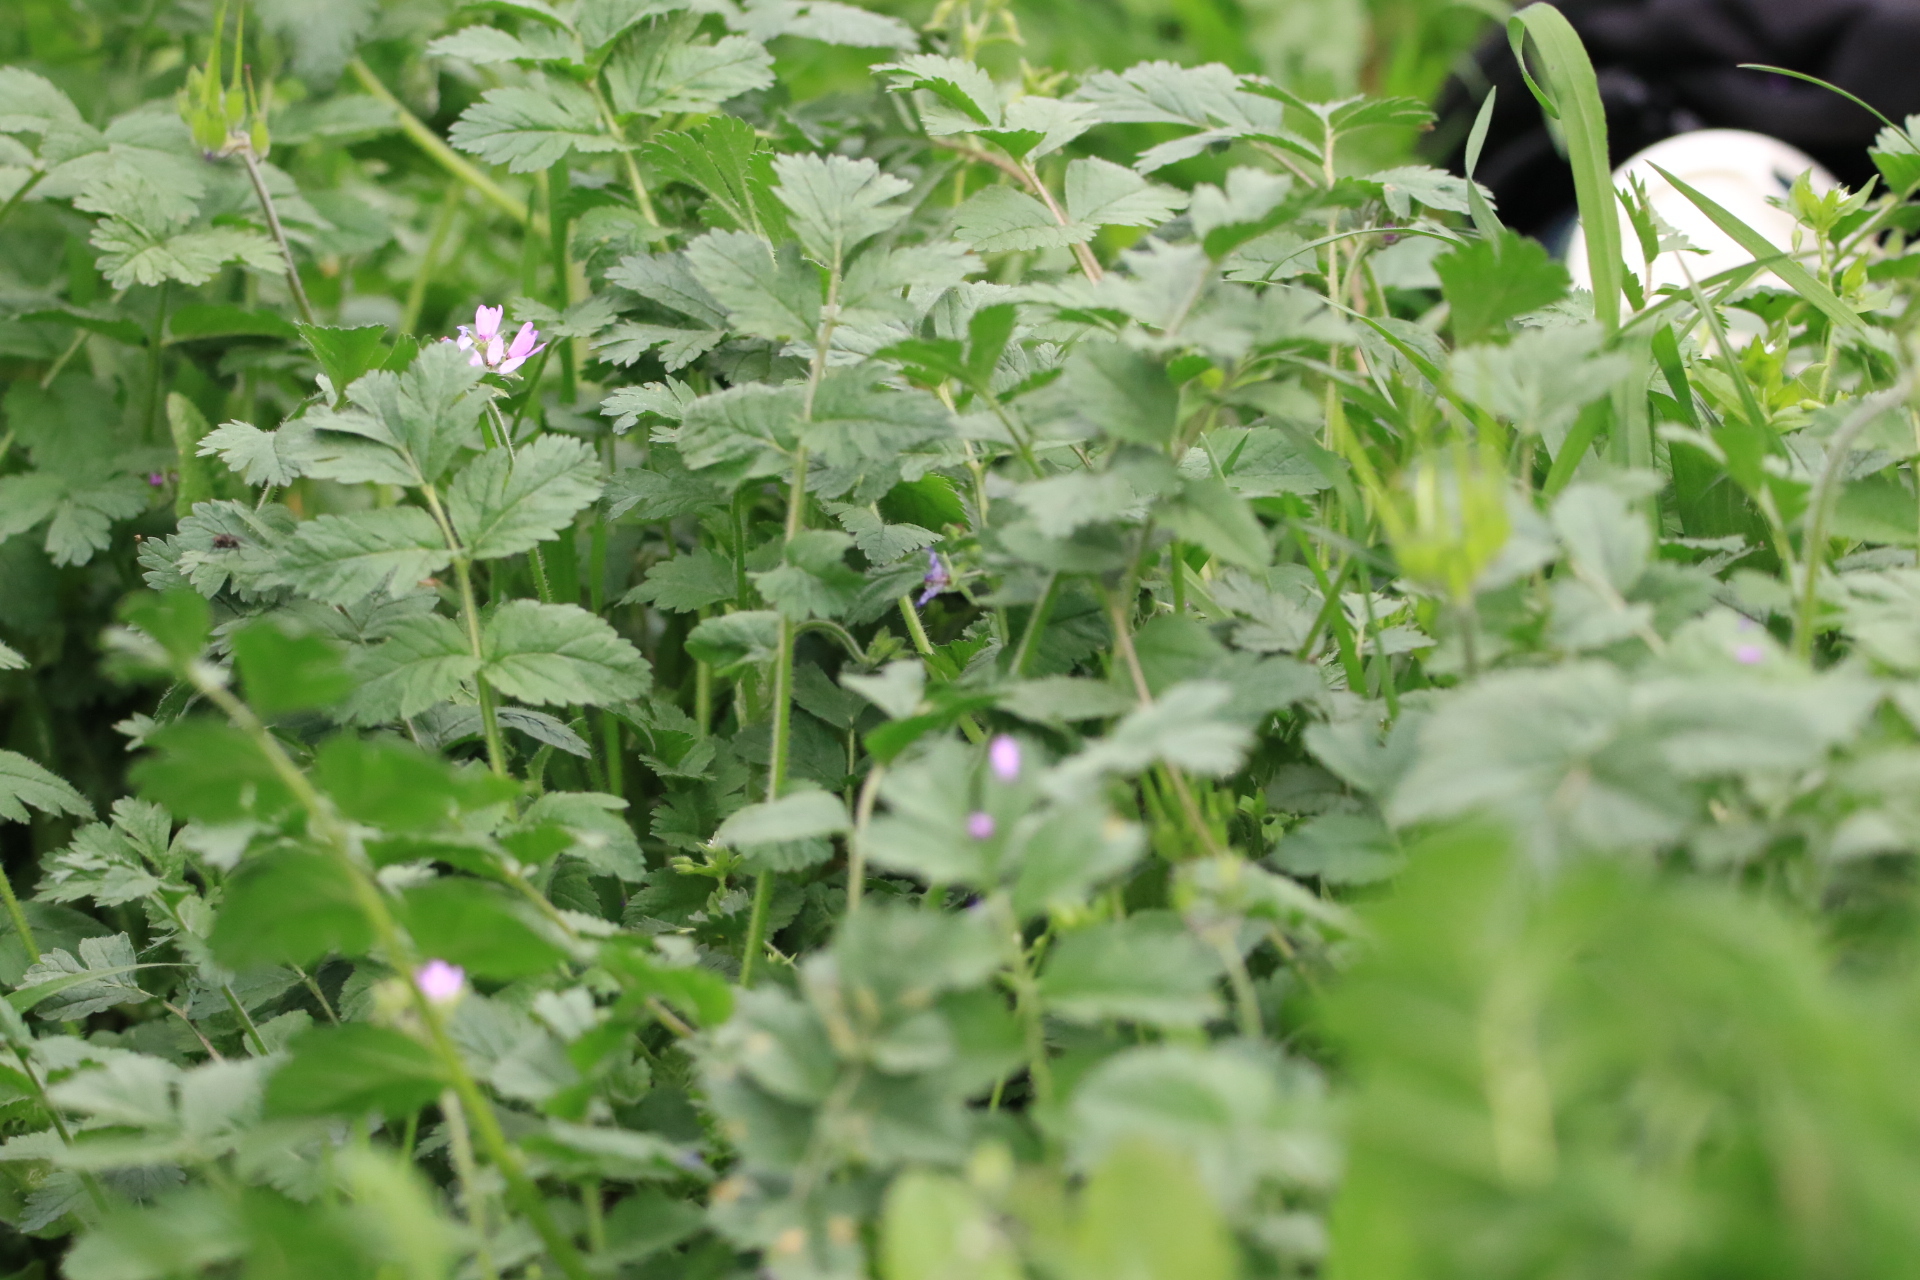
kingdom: Plantae
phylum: Tracheophyta
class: Magnoliopsida
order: Geraniales
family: Geraniaceae
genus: Erodium
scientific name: Erodium moschatum
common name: Musk stork's-bill
